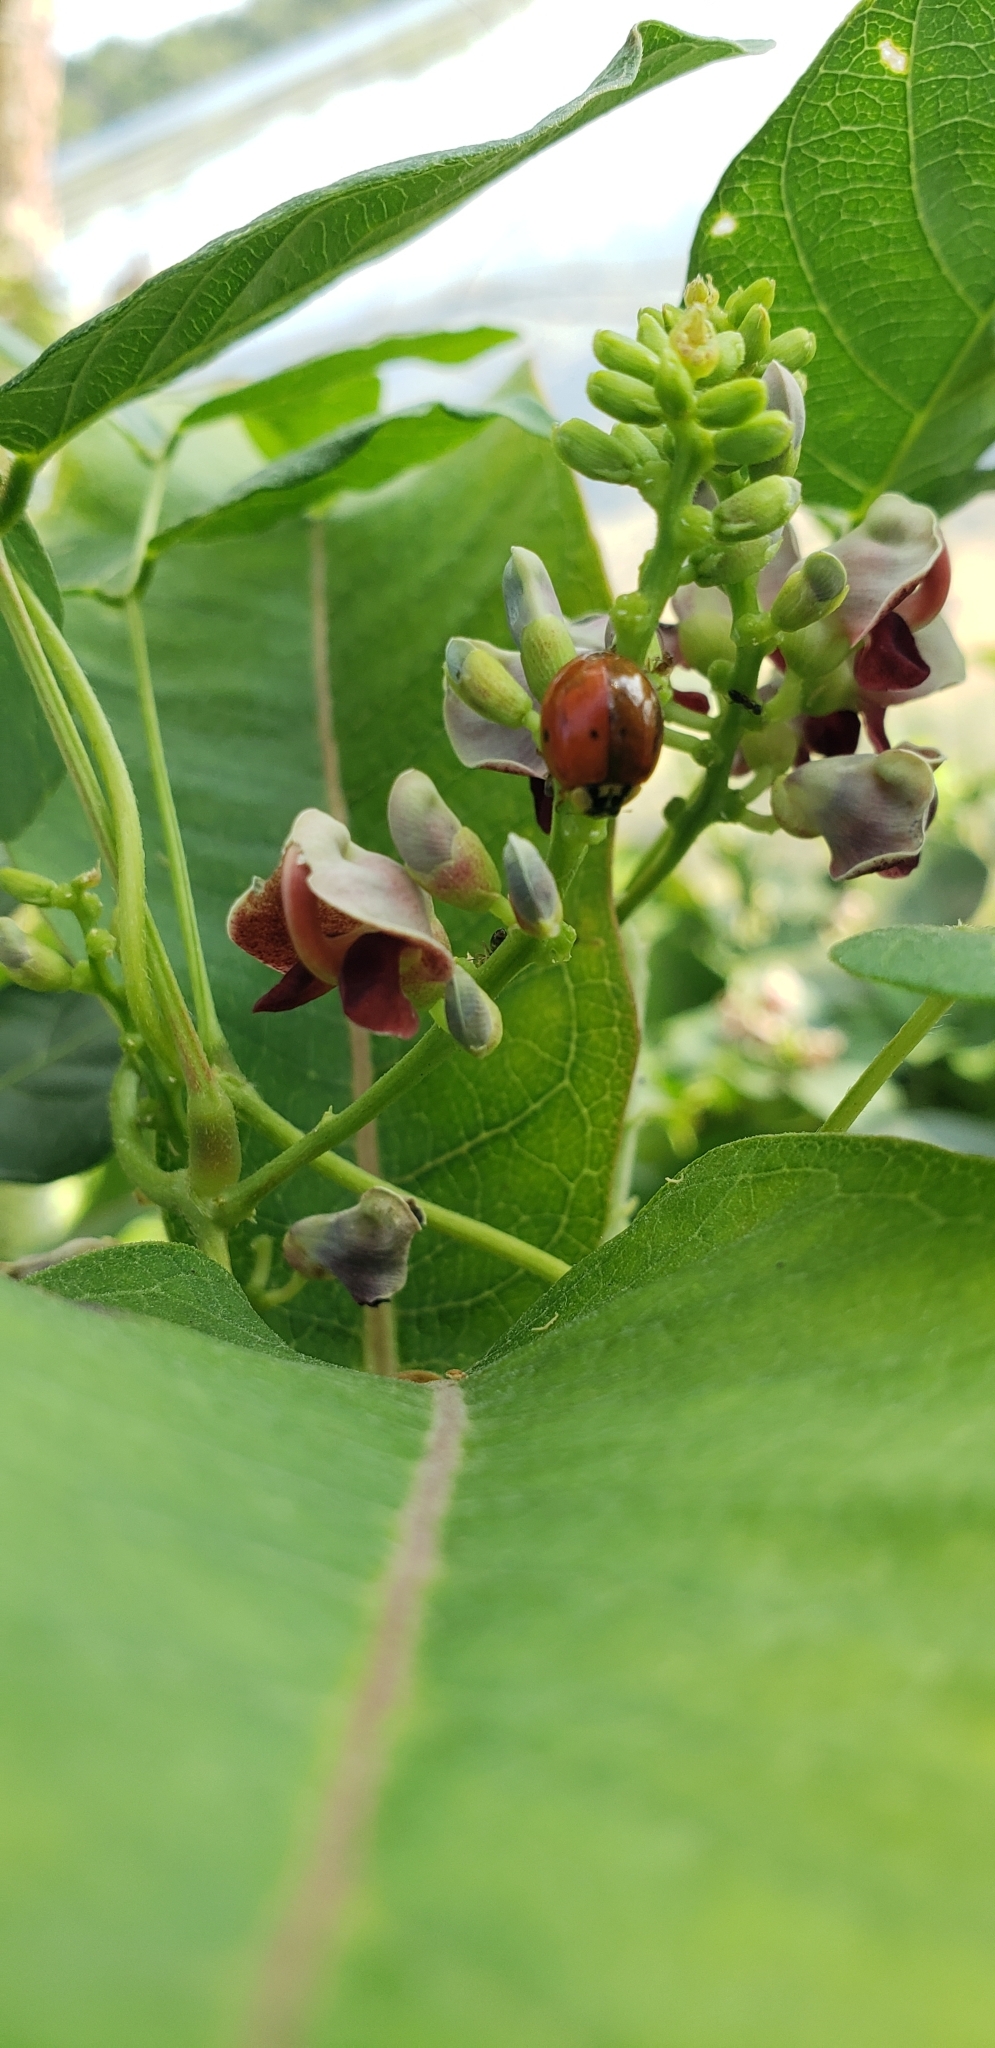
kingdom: Animalia
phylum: Arthropoda
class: Insecta
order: Coleoptera
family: Coccinellidae
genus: Harmonia
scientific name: Harmonia axyridis
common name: Harlequin ladybird
